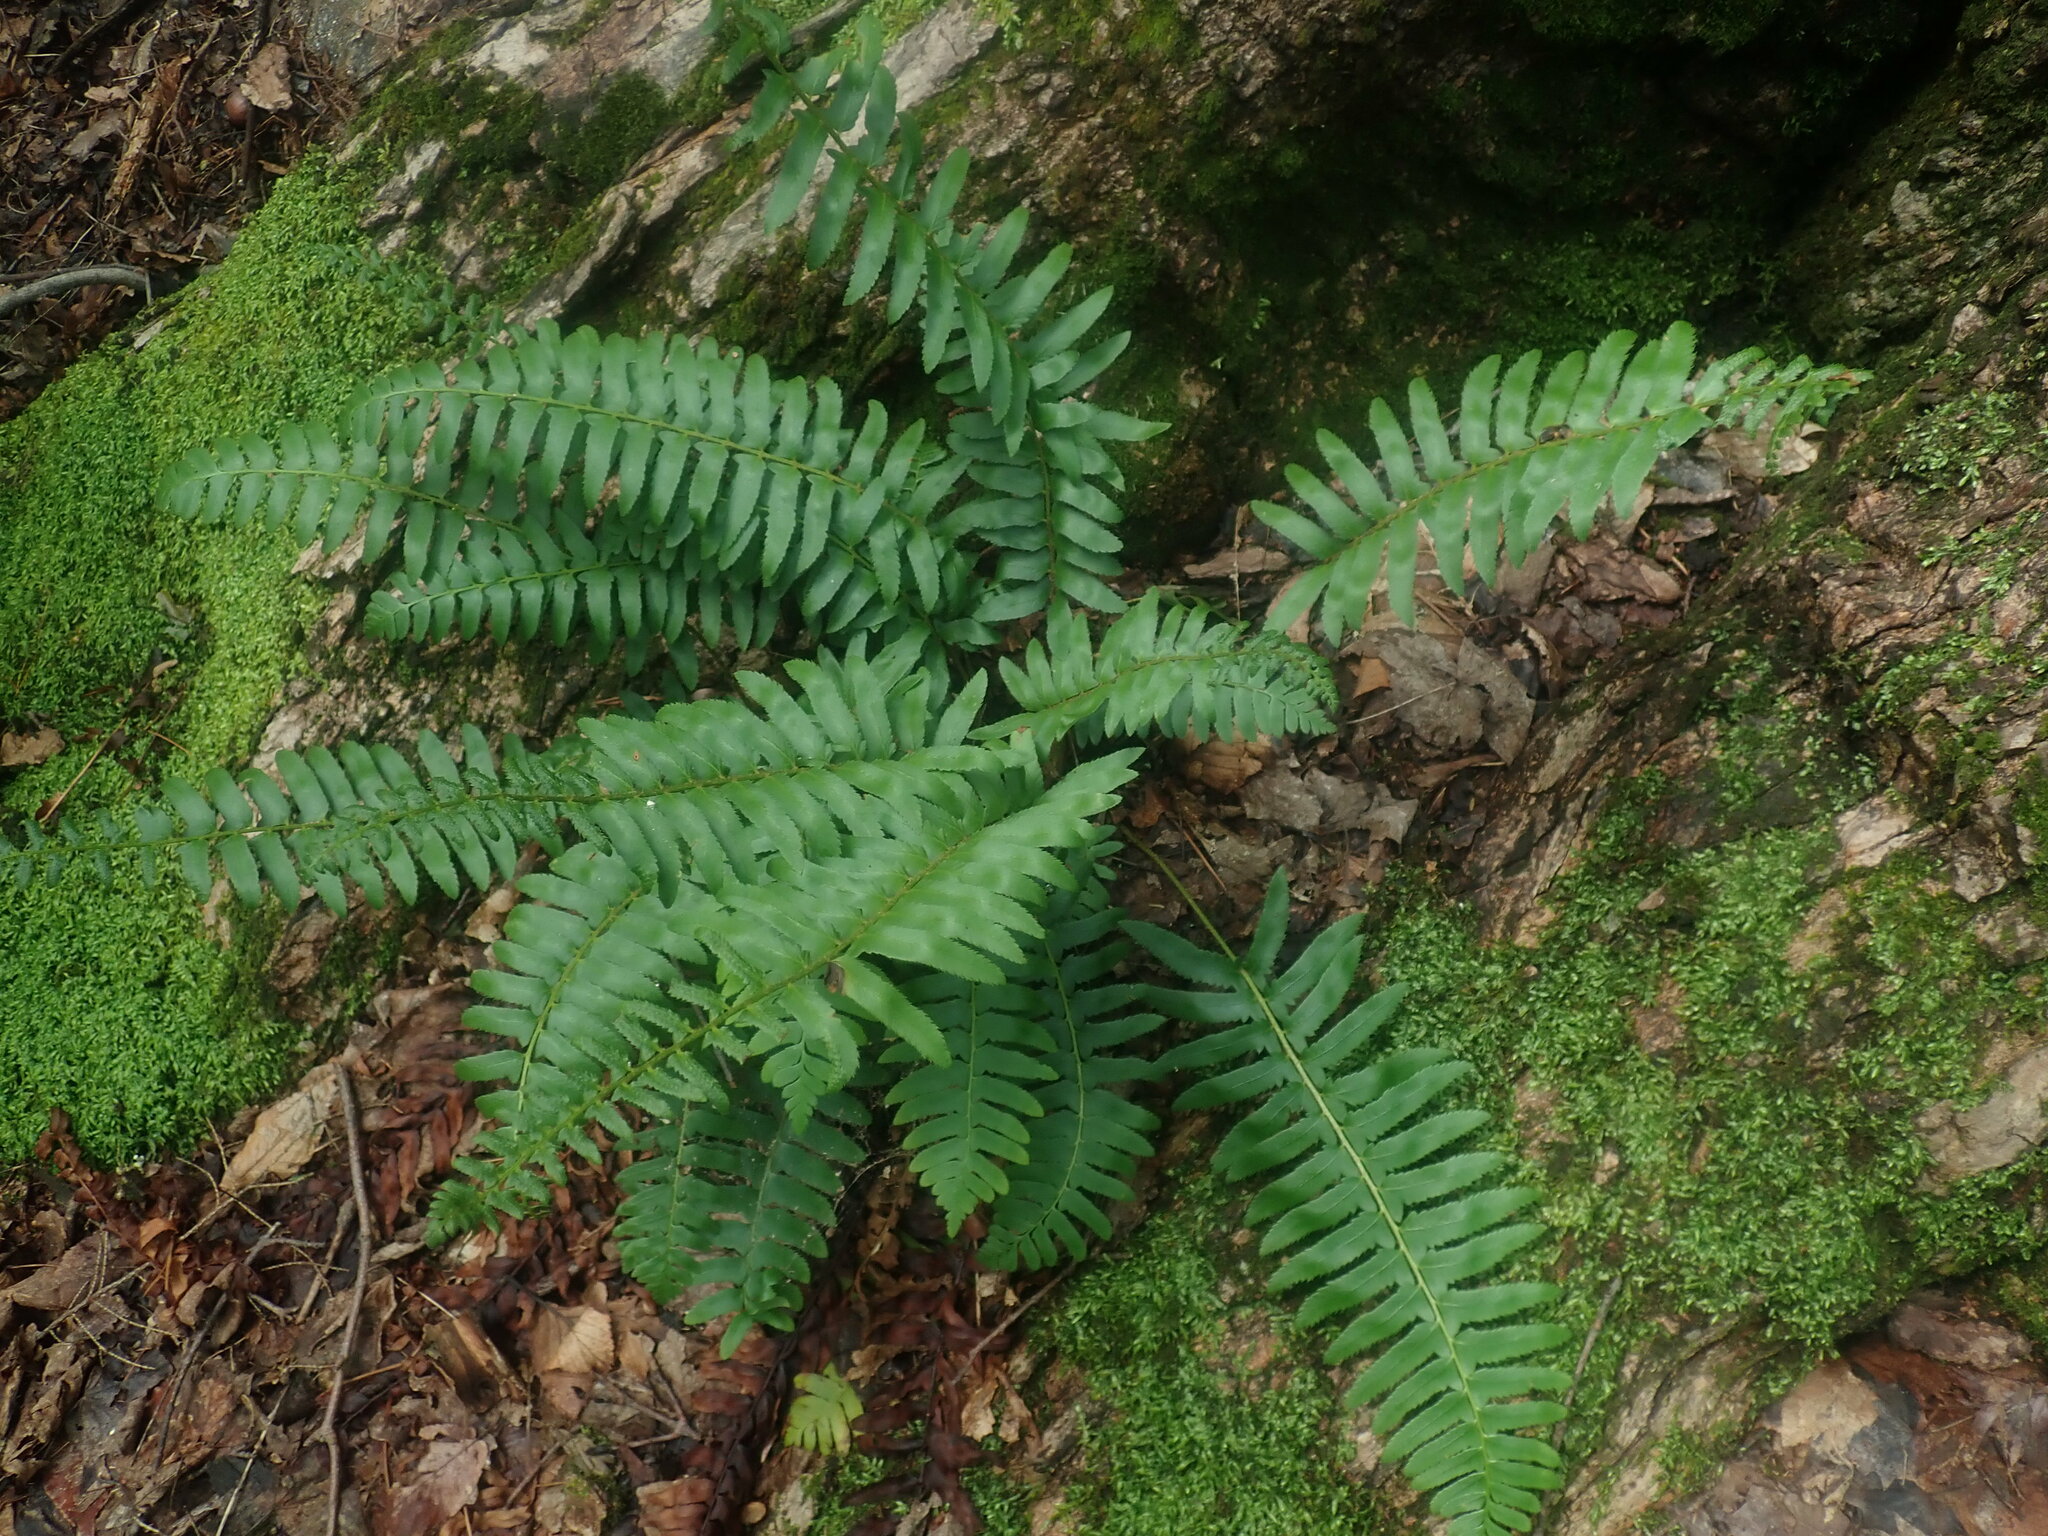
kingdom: Plantae
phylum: Tracheophyta
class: Polypodiopsida
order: Polypodiales
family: Dryopteridaceae
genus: Polystichum
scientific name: Polystichum acrostichoides
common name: Christmas fern
